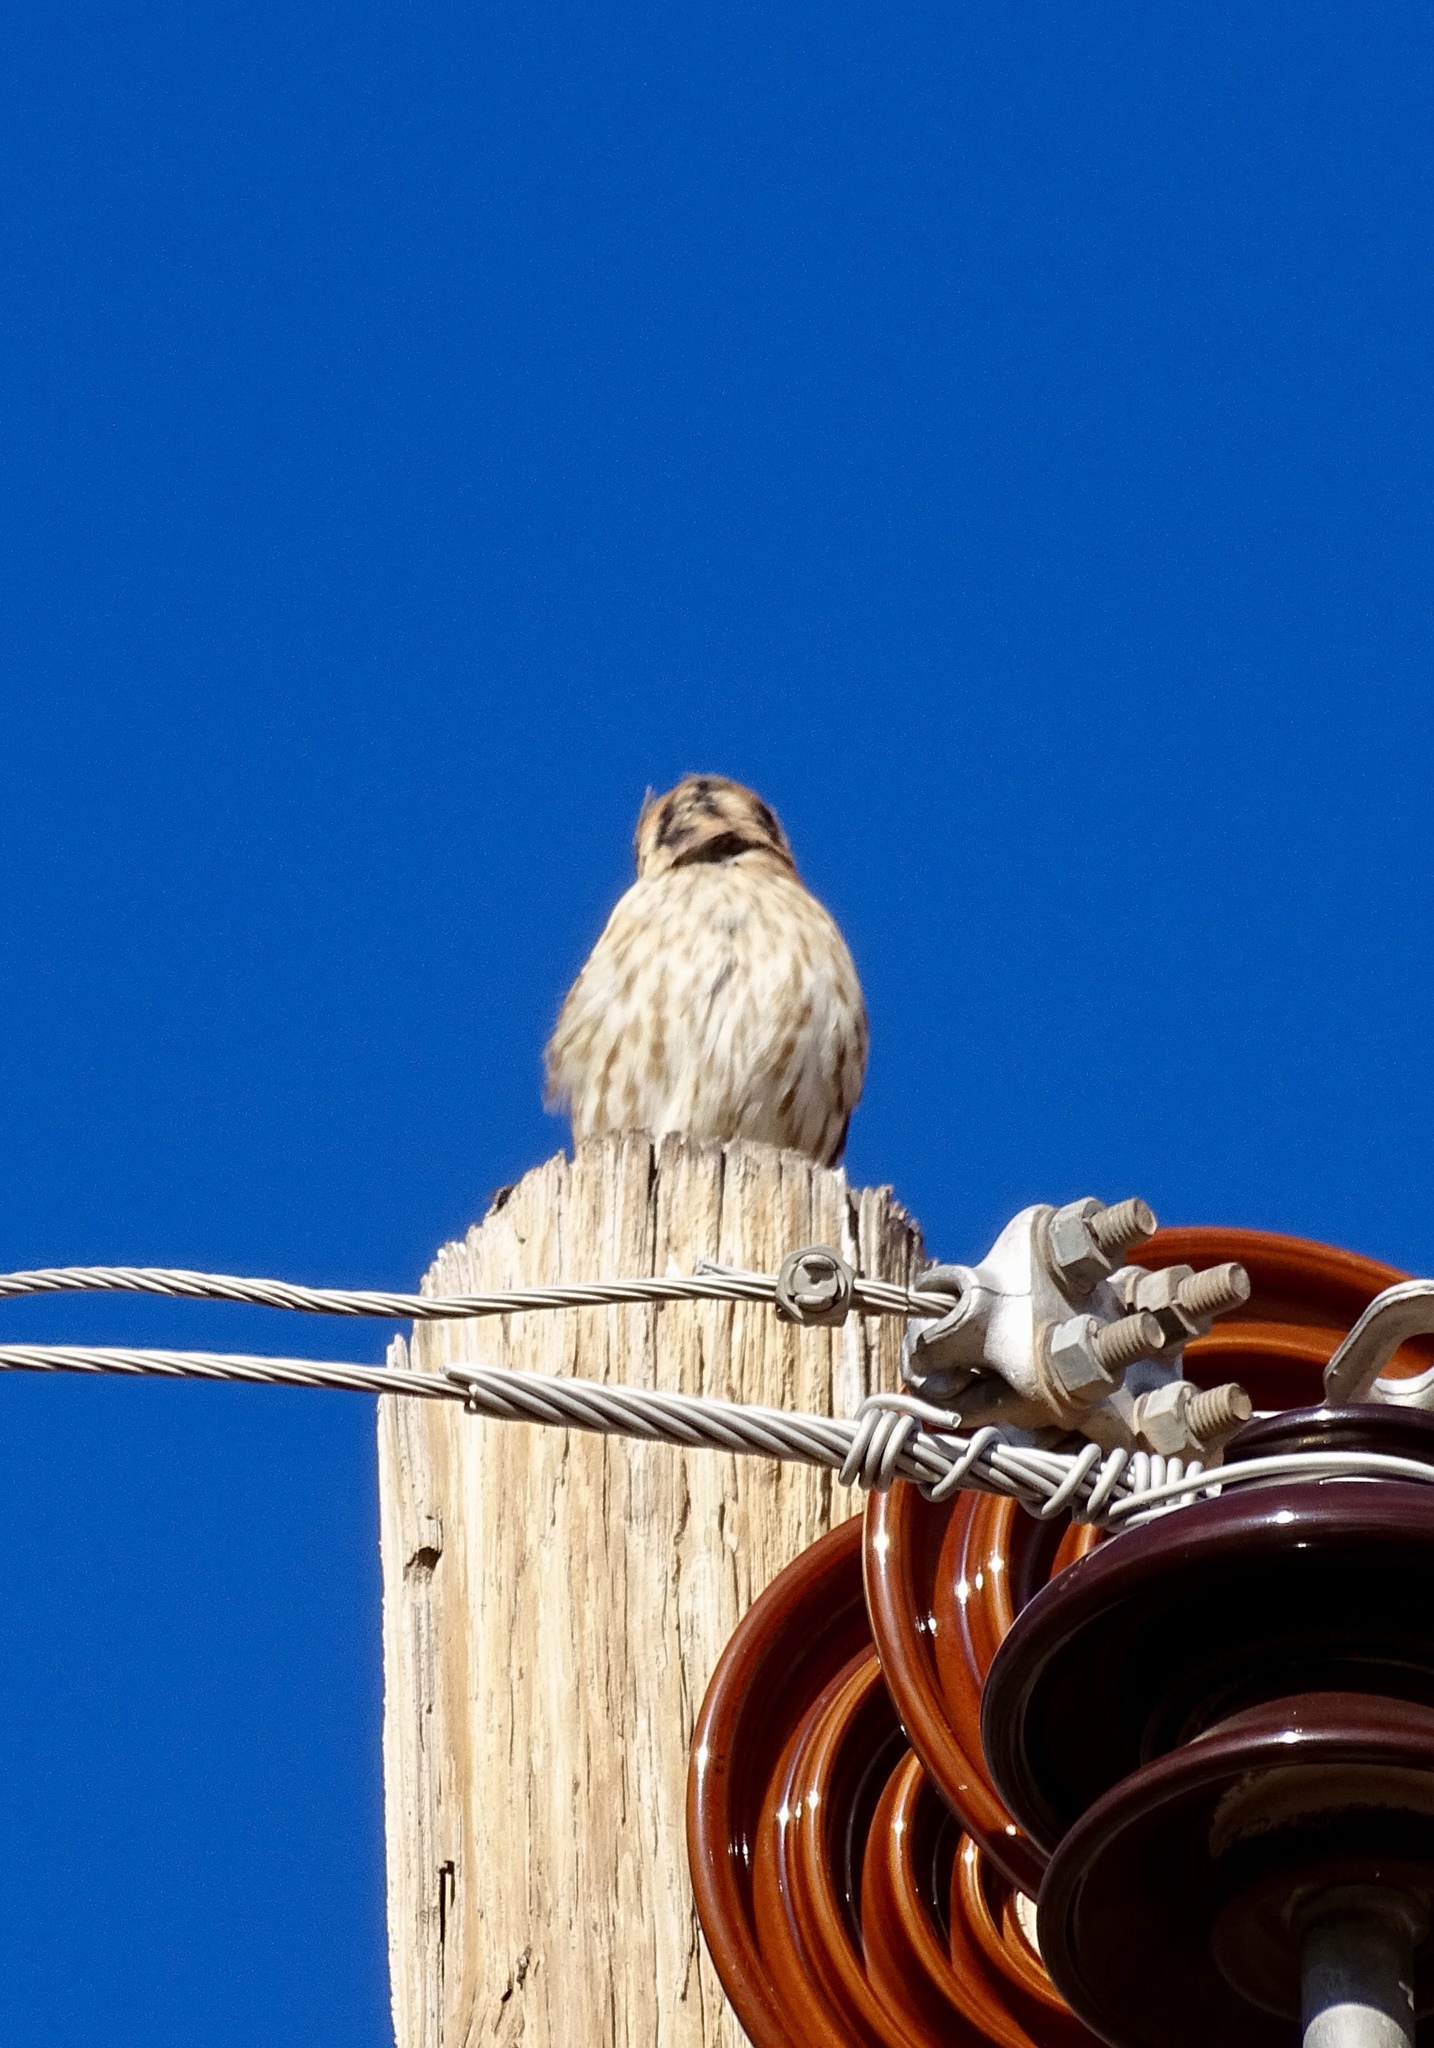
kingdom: Animalia
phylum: Chordata
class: Aves
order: Falconiformes
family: Falconidae
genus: Falco
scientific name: Falco sparverius
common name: American kestrel
